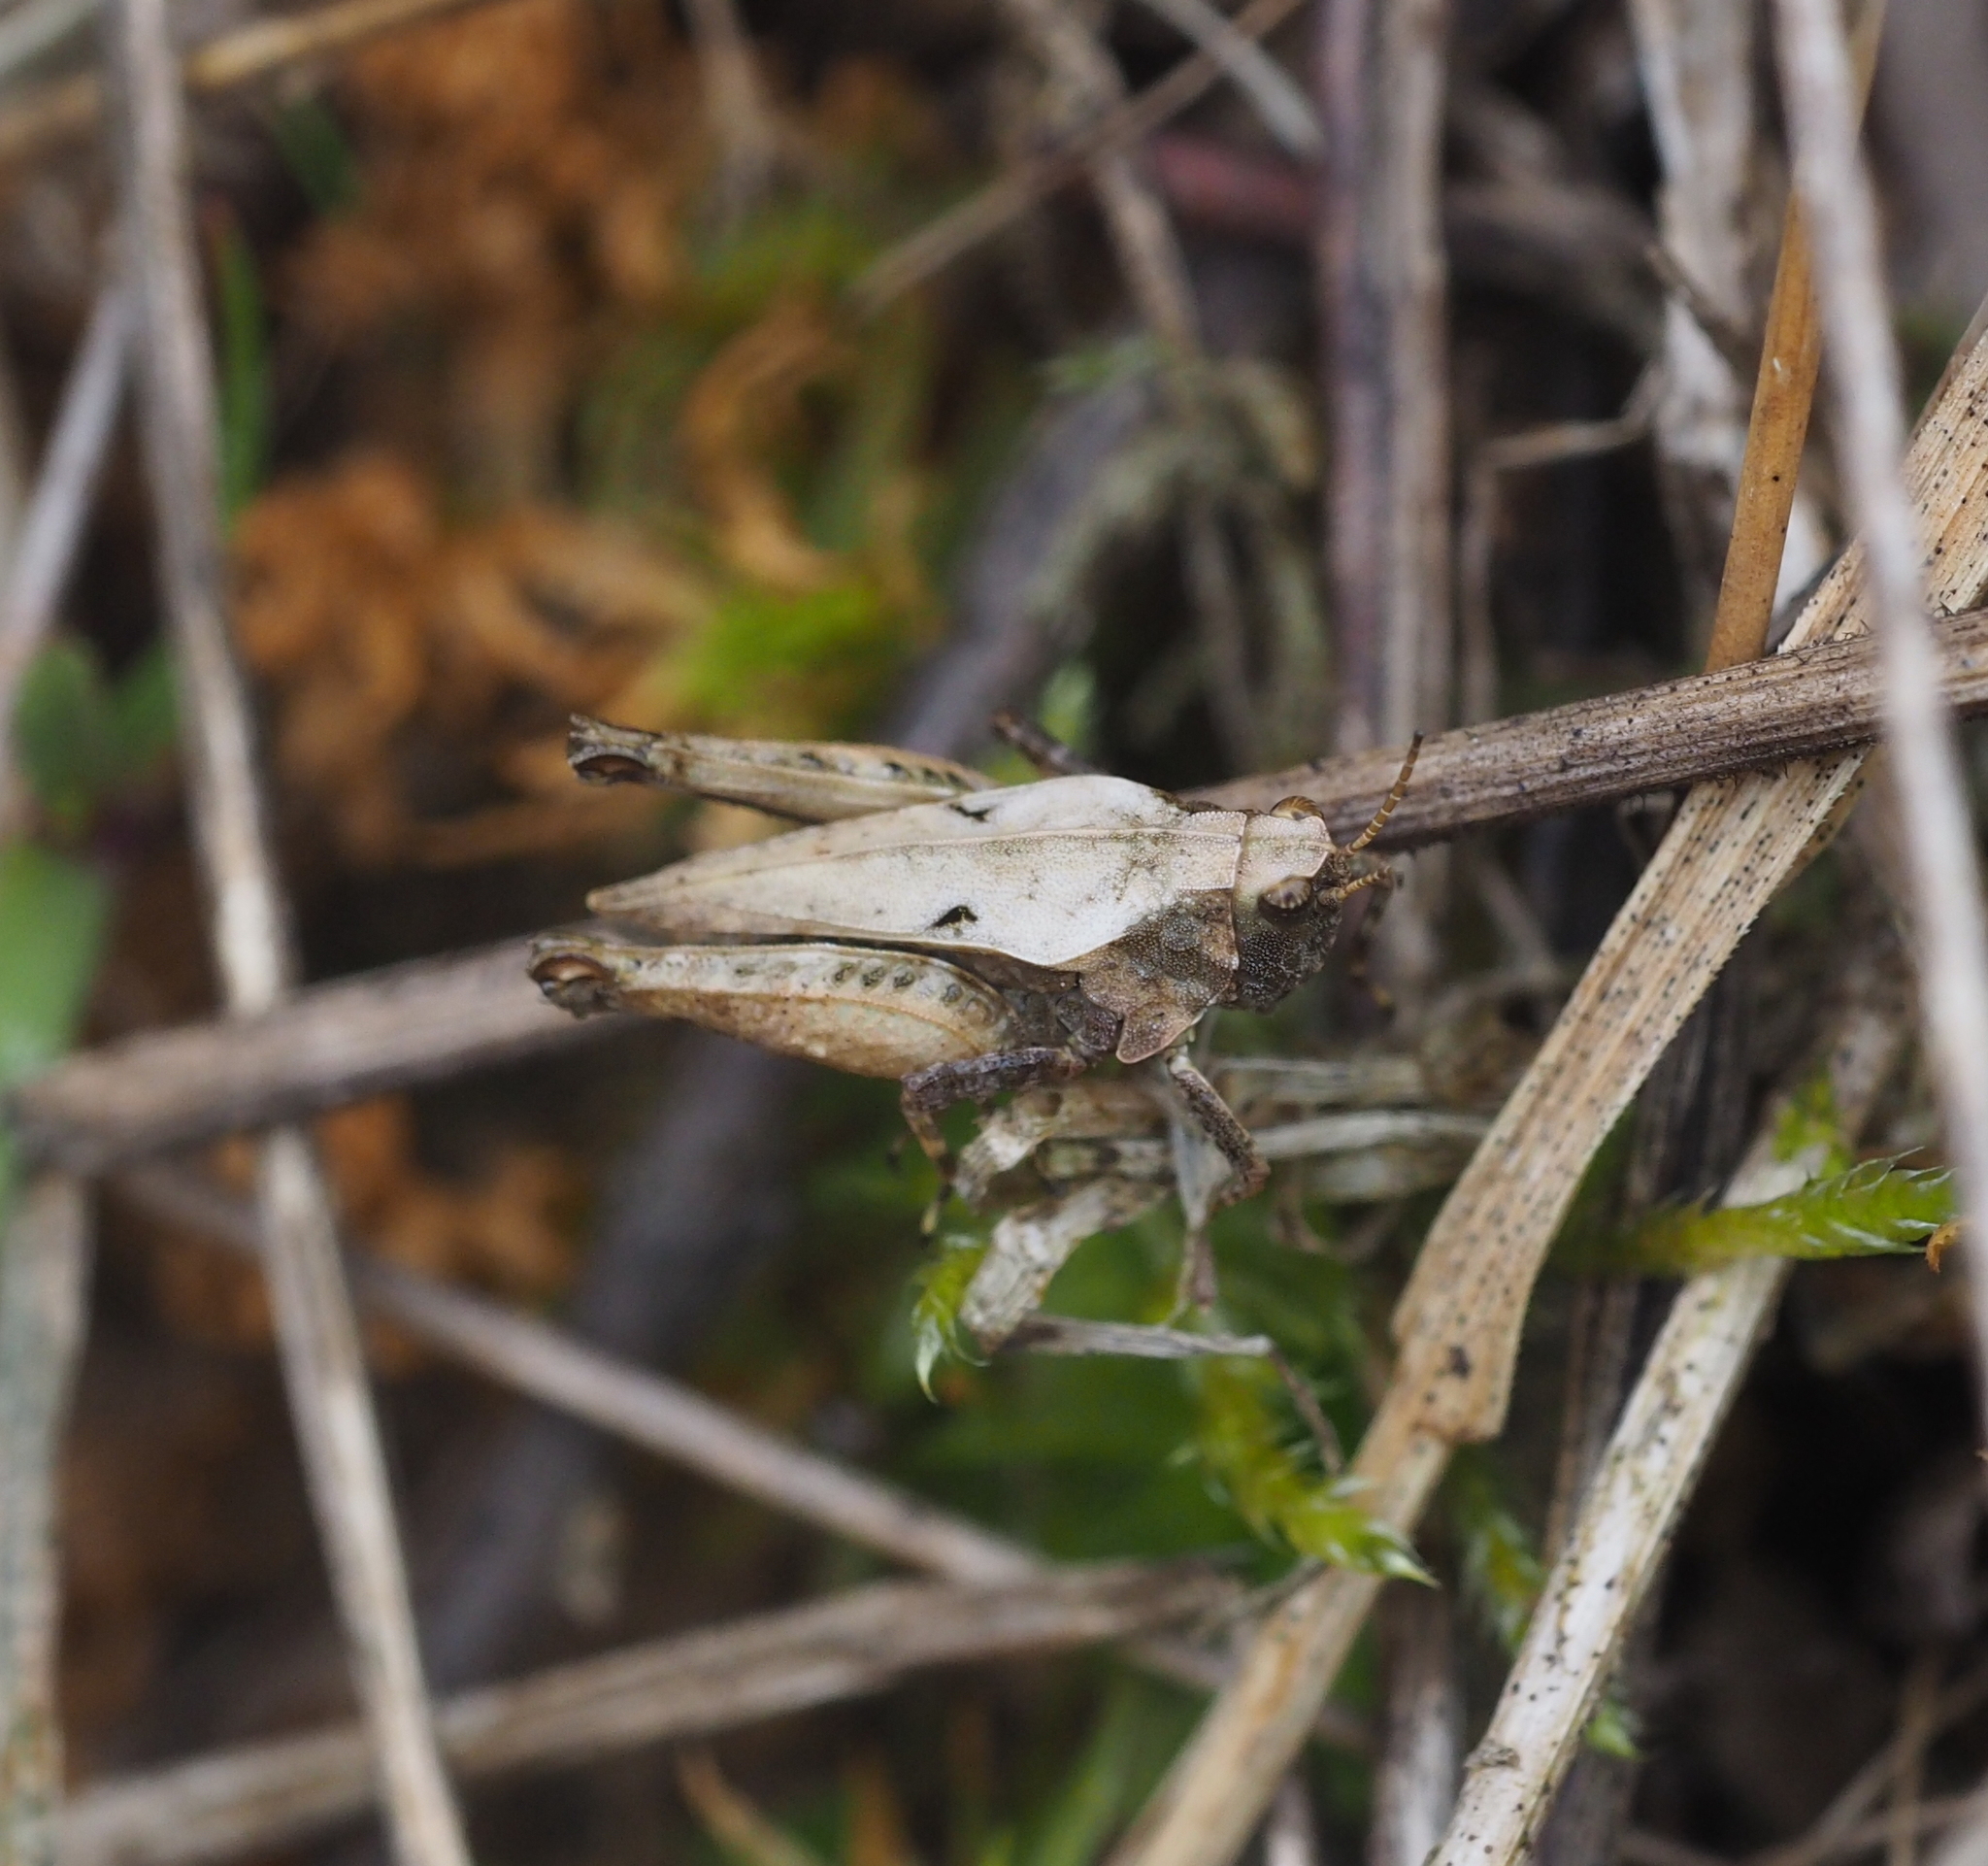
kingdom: Animalia
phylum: Arthropoda
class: Insecta
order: Orthoptera
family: Tetrigidae
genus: Tetrix
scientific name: Tetrix undulata
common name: Common groundhopper
